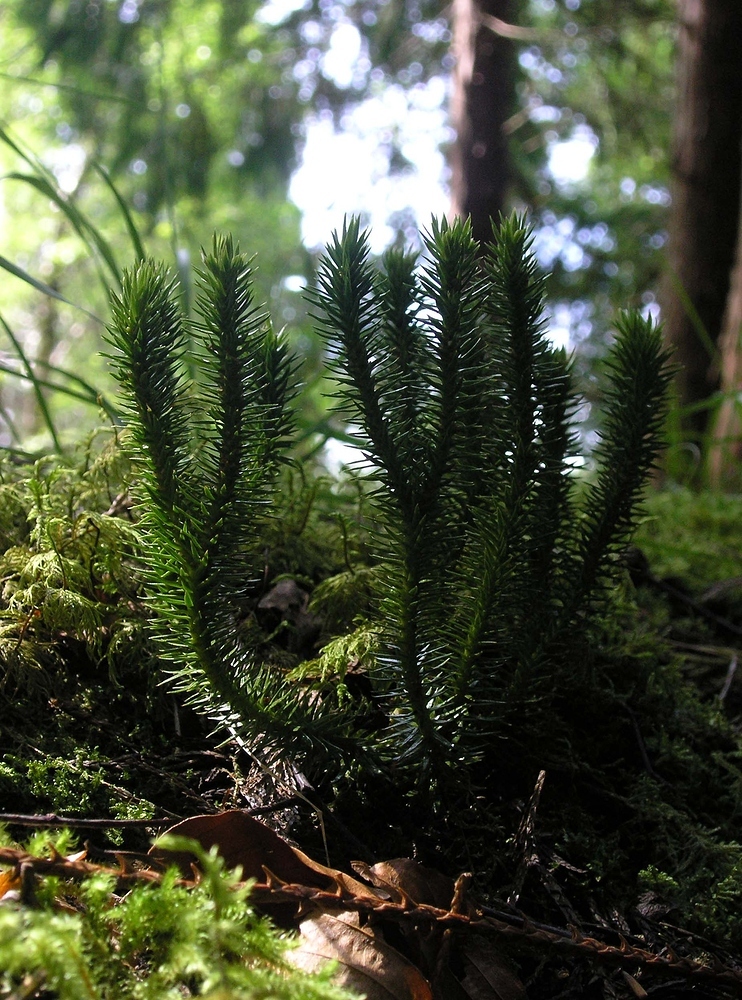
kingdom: Plantae
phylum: Tracheophyta
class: Lycopodiopsida
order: Lycopodiales
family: Lycopodiaceae
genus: Huperzia
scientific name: Huperzia selago
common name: Northern firmoss
